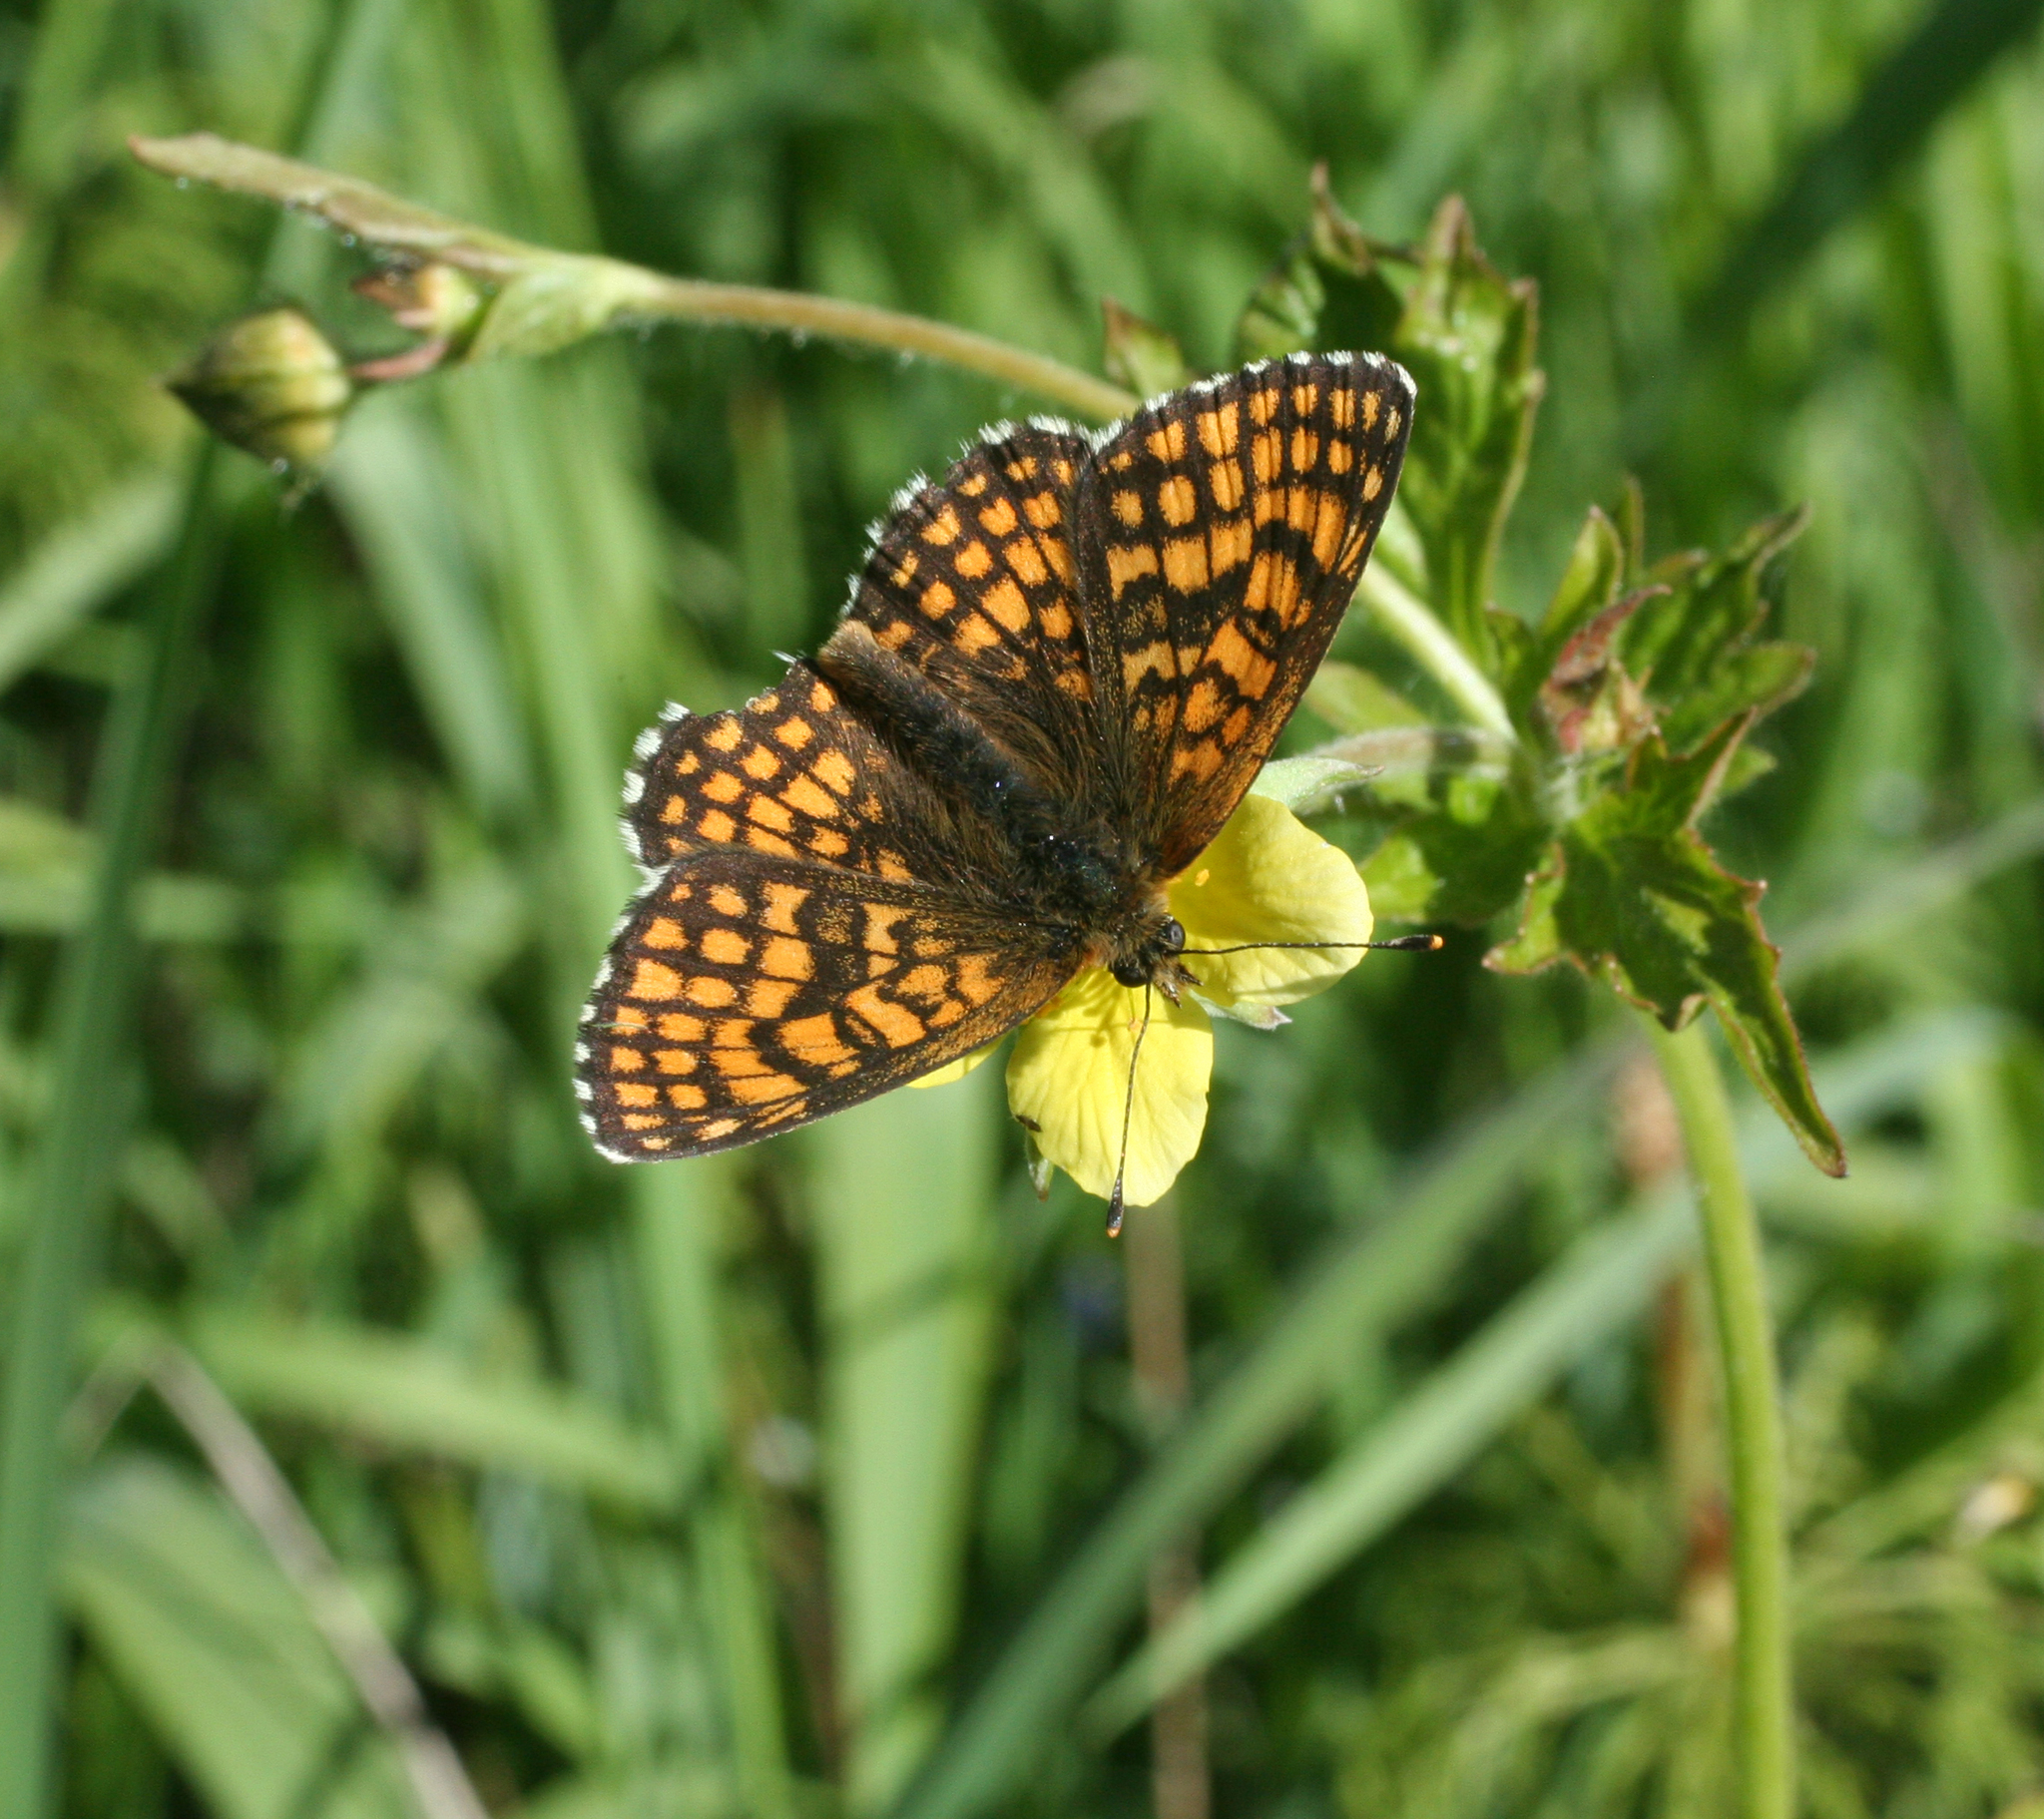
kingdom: Plantae
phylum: Tracheophyta
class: Magnoliopsida
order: Rosales
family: Rosaceae
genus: Geum
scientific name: Geum aleppicum
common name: Yellow avens
